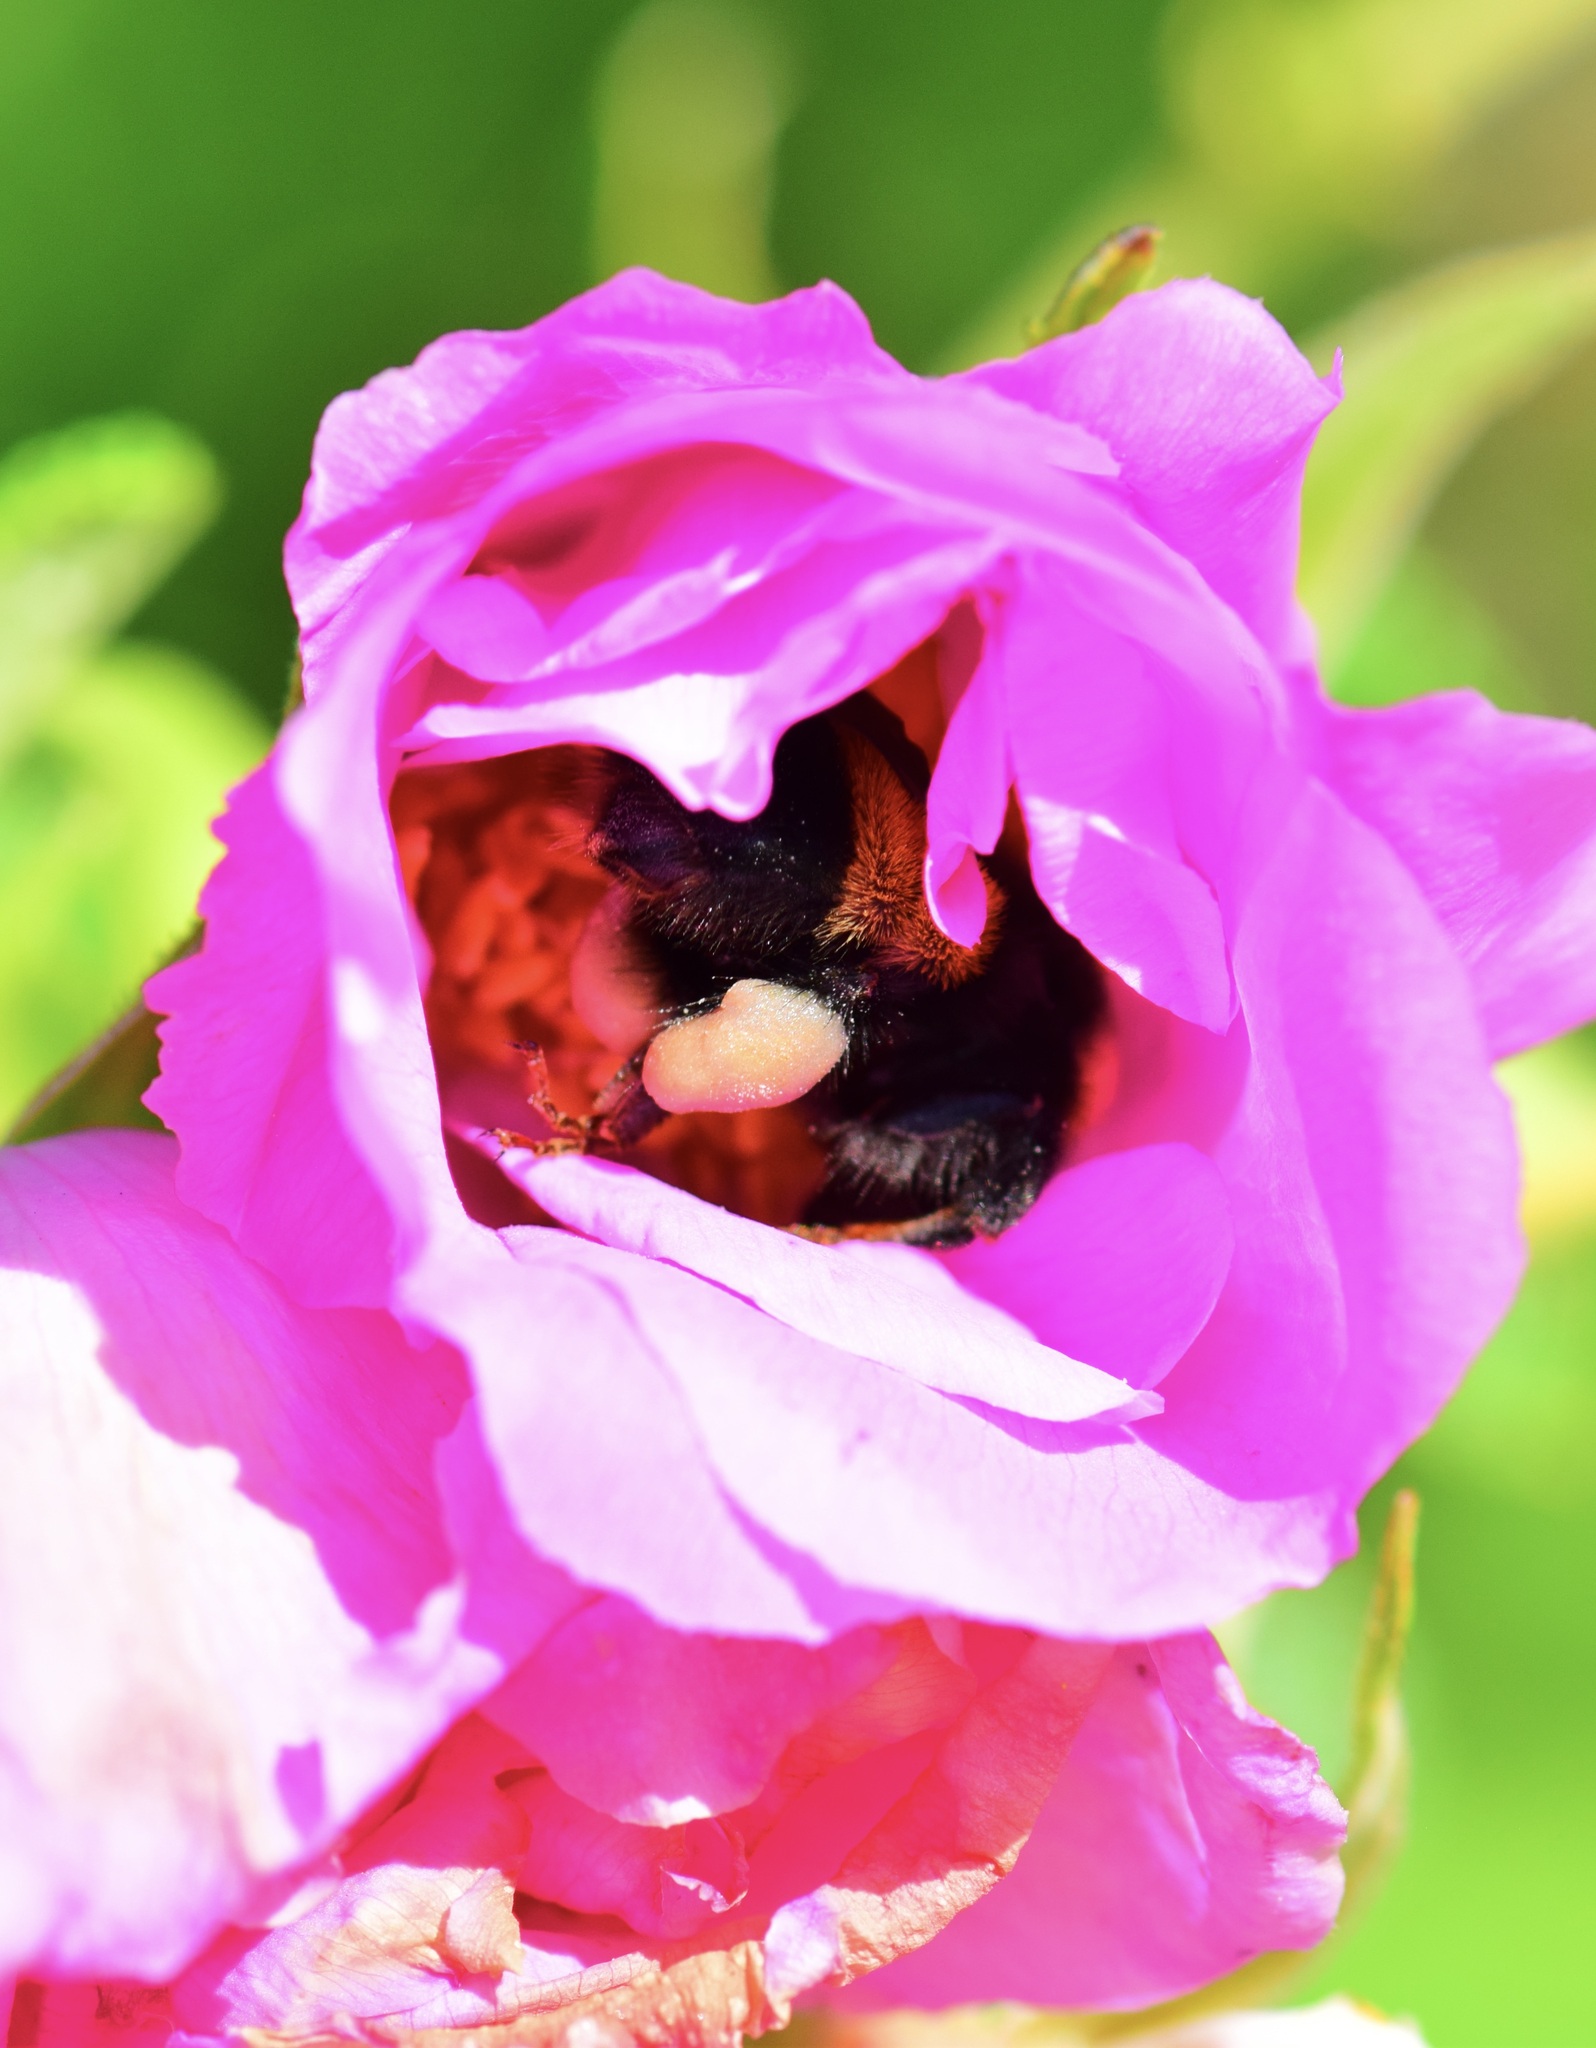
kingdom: Animalia
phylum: Arthropoda
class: Insecta
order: Hymenoptera
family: Apidae
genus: Bombus
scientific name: Bombus terricola
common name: Yellow-banded bumble bee
